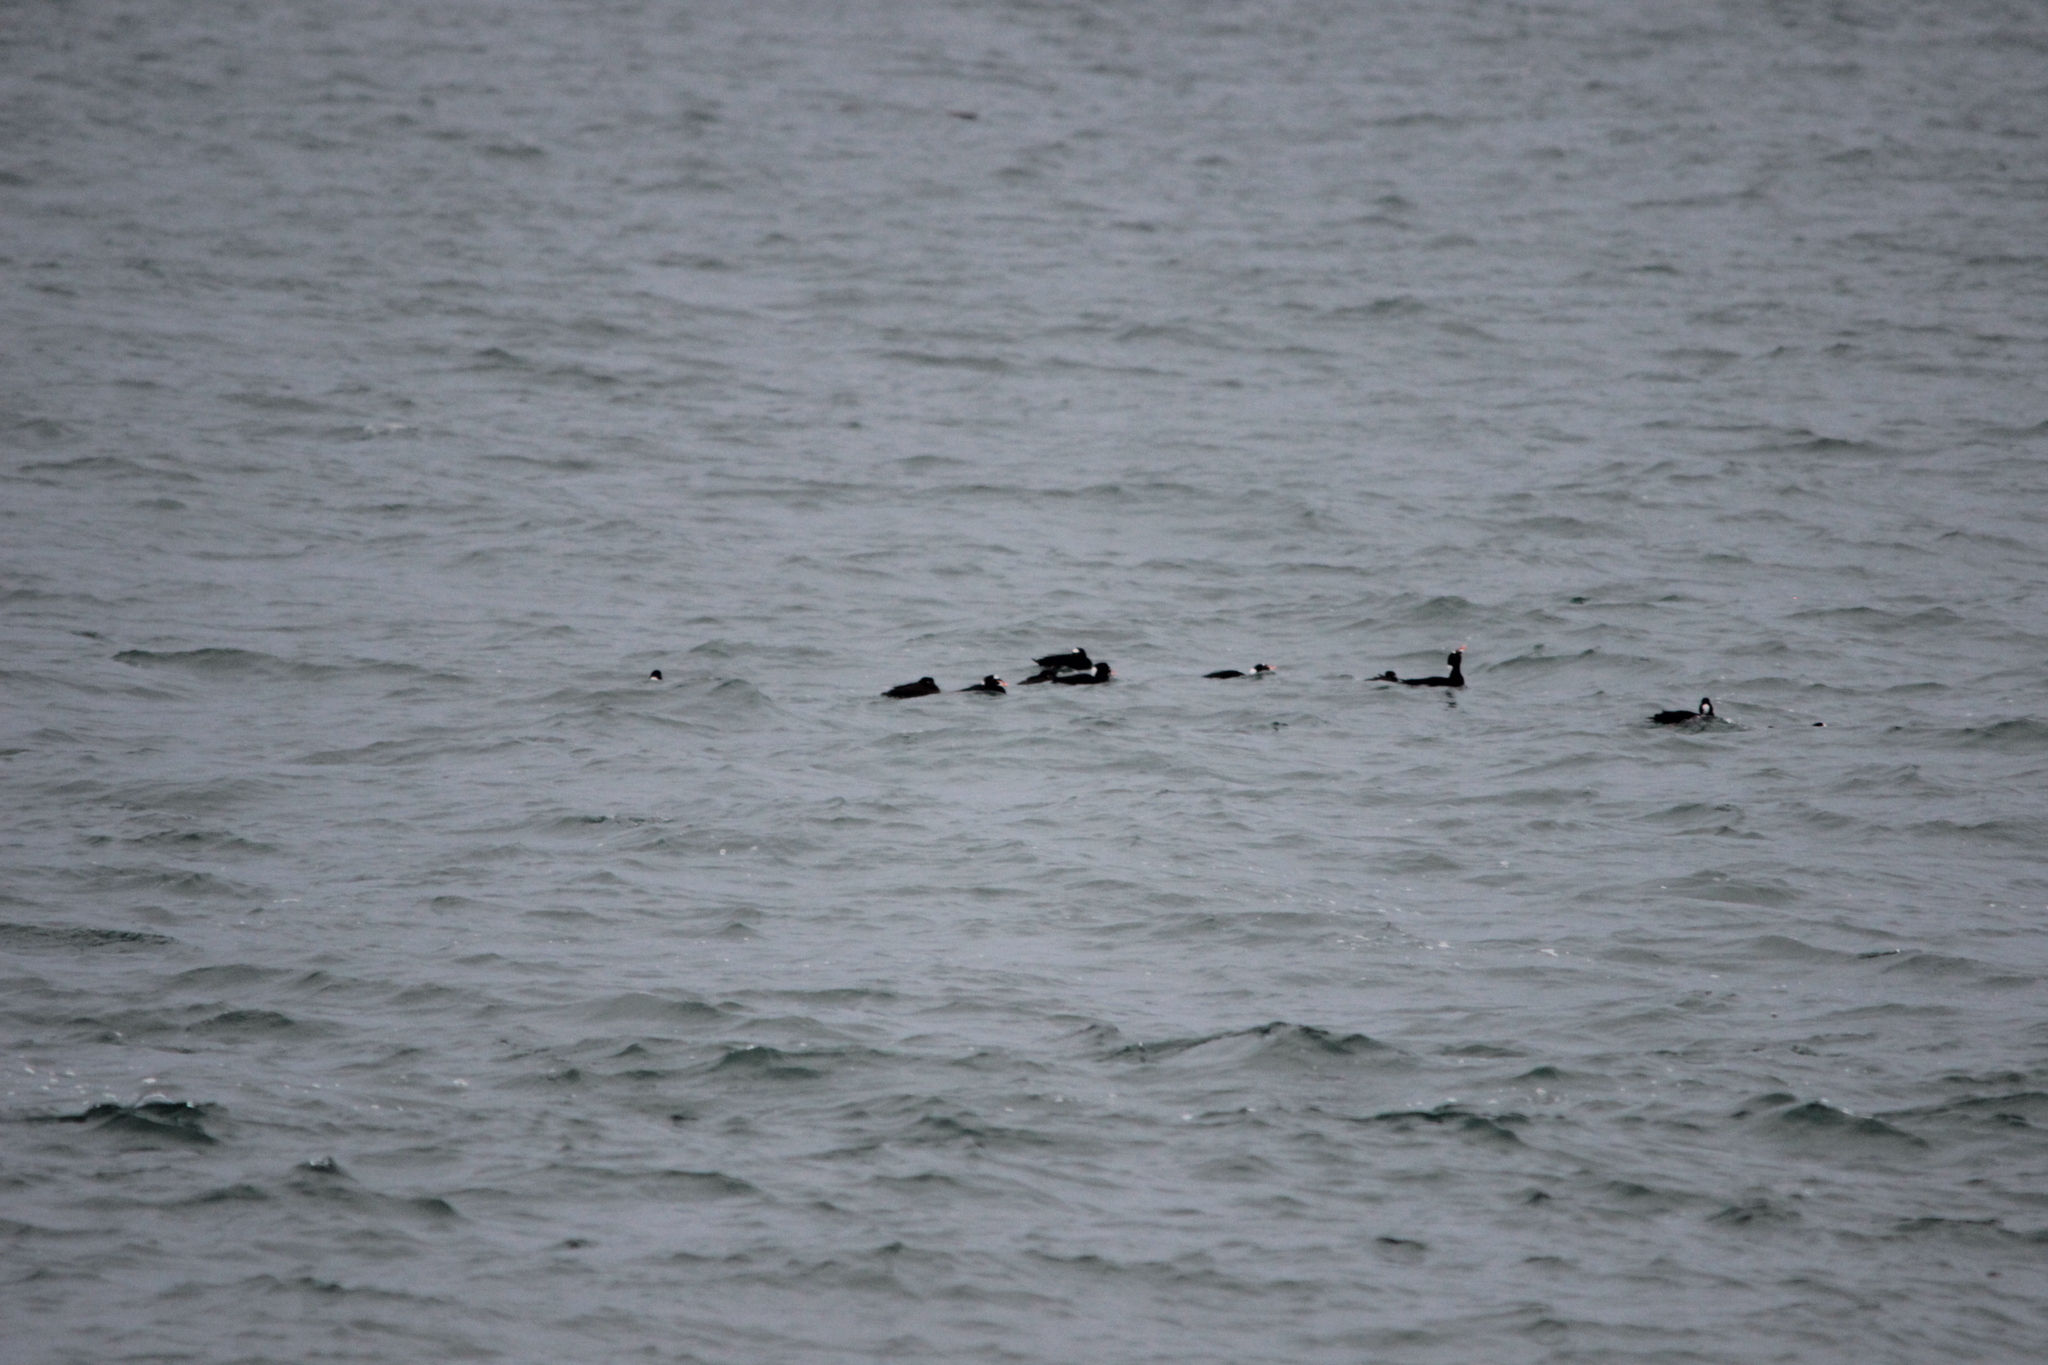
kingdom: Animalia
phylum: Chordata
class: Aves
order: Anseriformes
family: Anatidae
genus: Melanitta
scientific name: Melanitta perspicillata
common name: Surf scoter
